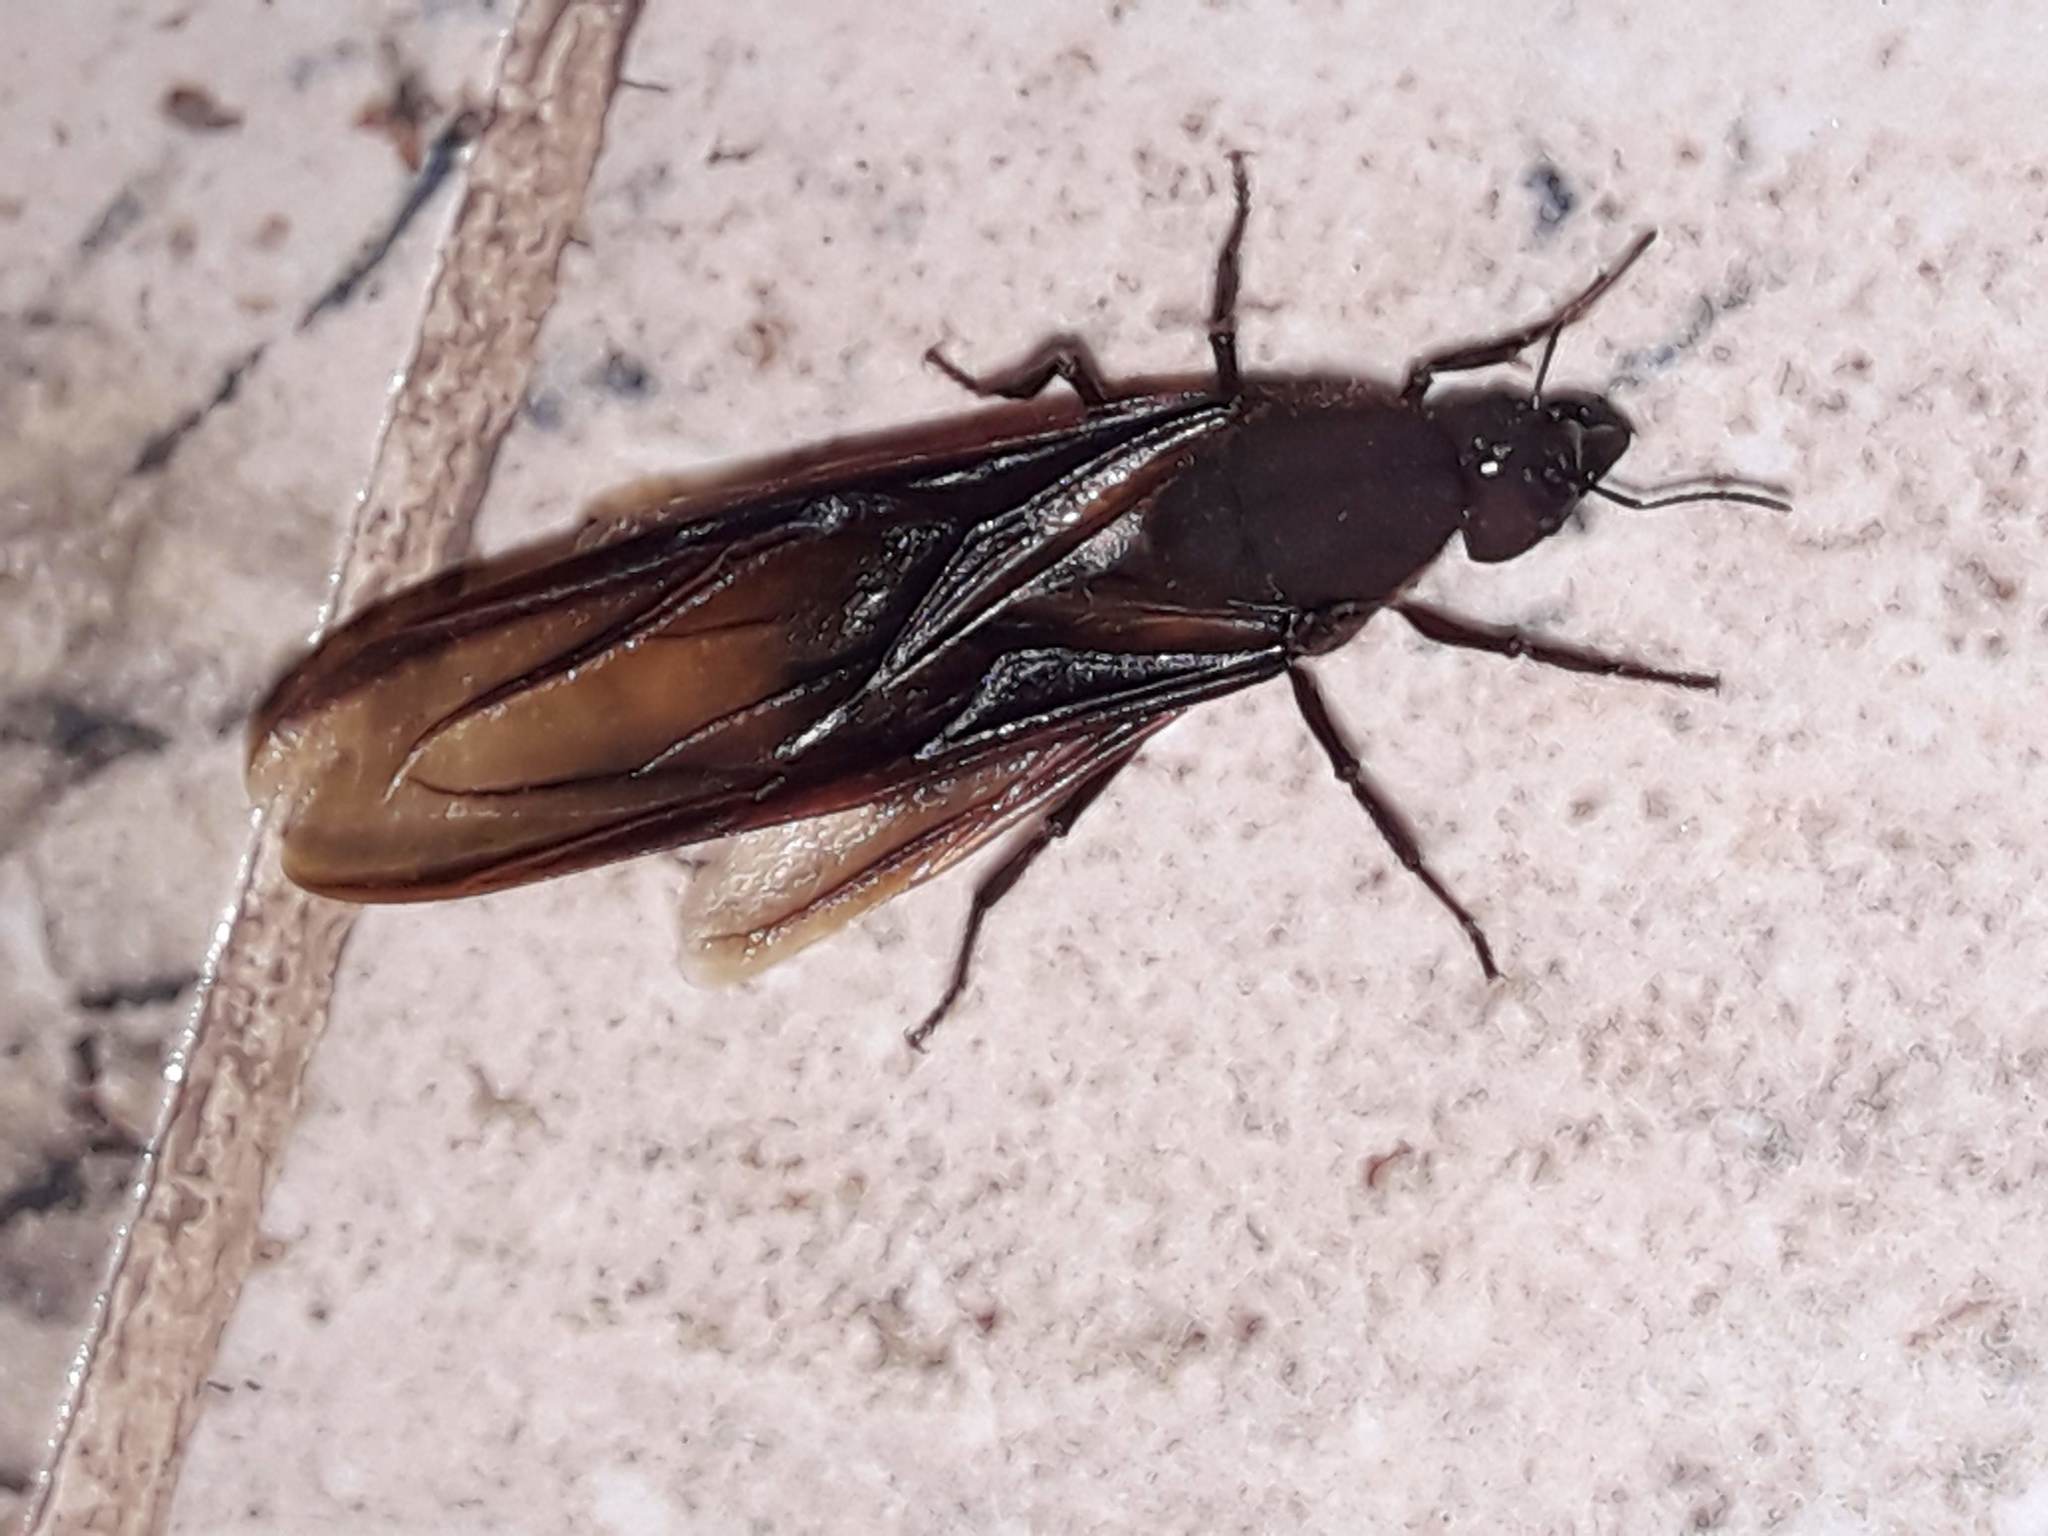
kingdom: Animalia
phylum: Arthropoda
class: Insecta
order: Hymenoptera
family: Formicidae
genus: Atta
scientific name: Atta cephalotes
